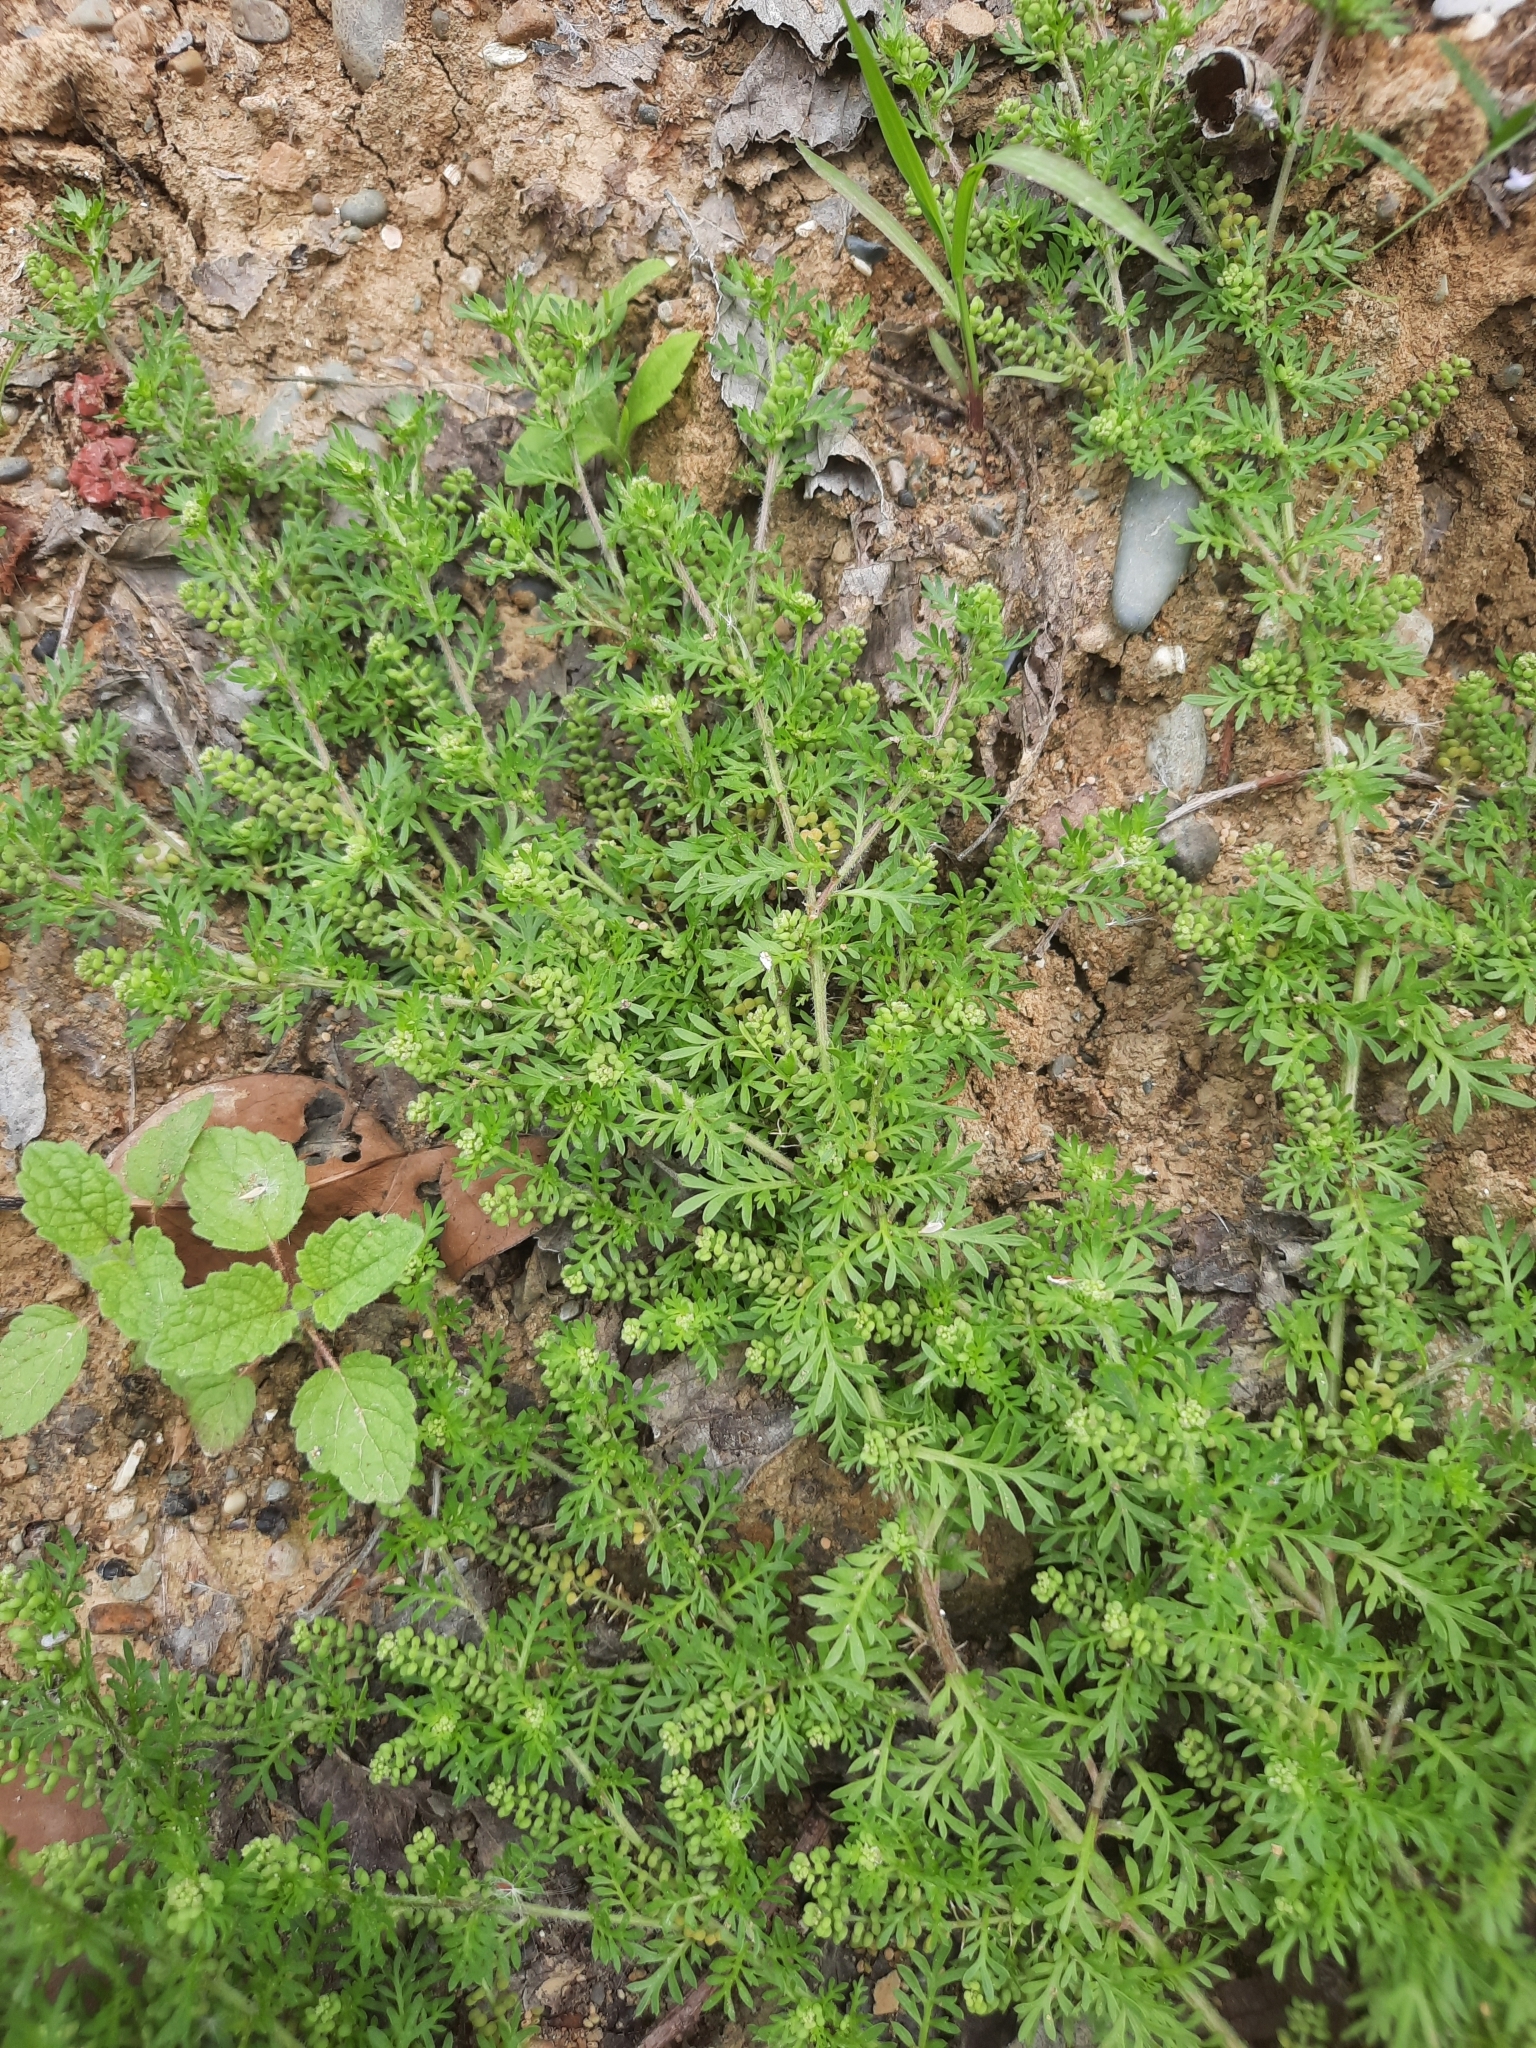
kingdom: Plantae
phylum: Tracheophyta
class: Magnoliopsida
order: Brassicales
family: Brassicaceae
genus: Lepidium
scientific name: Lepidium didymum
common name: Lesser swinecress
